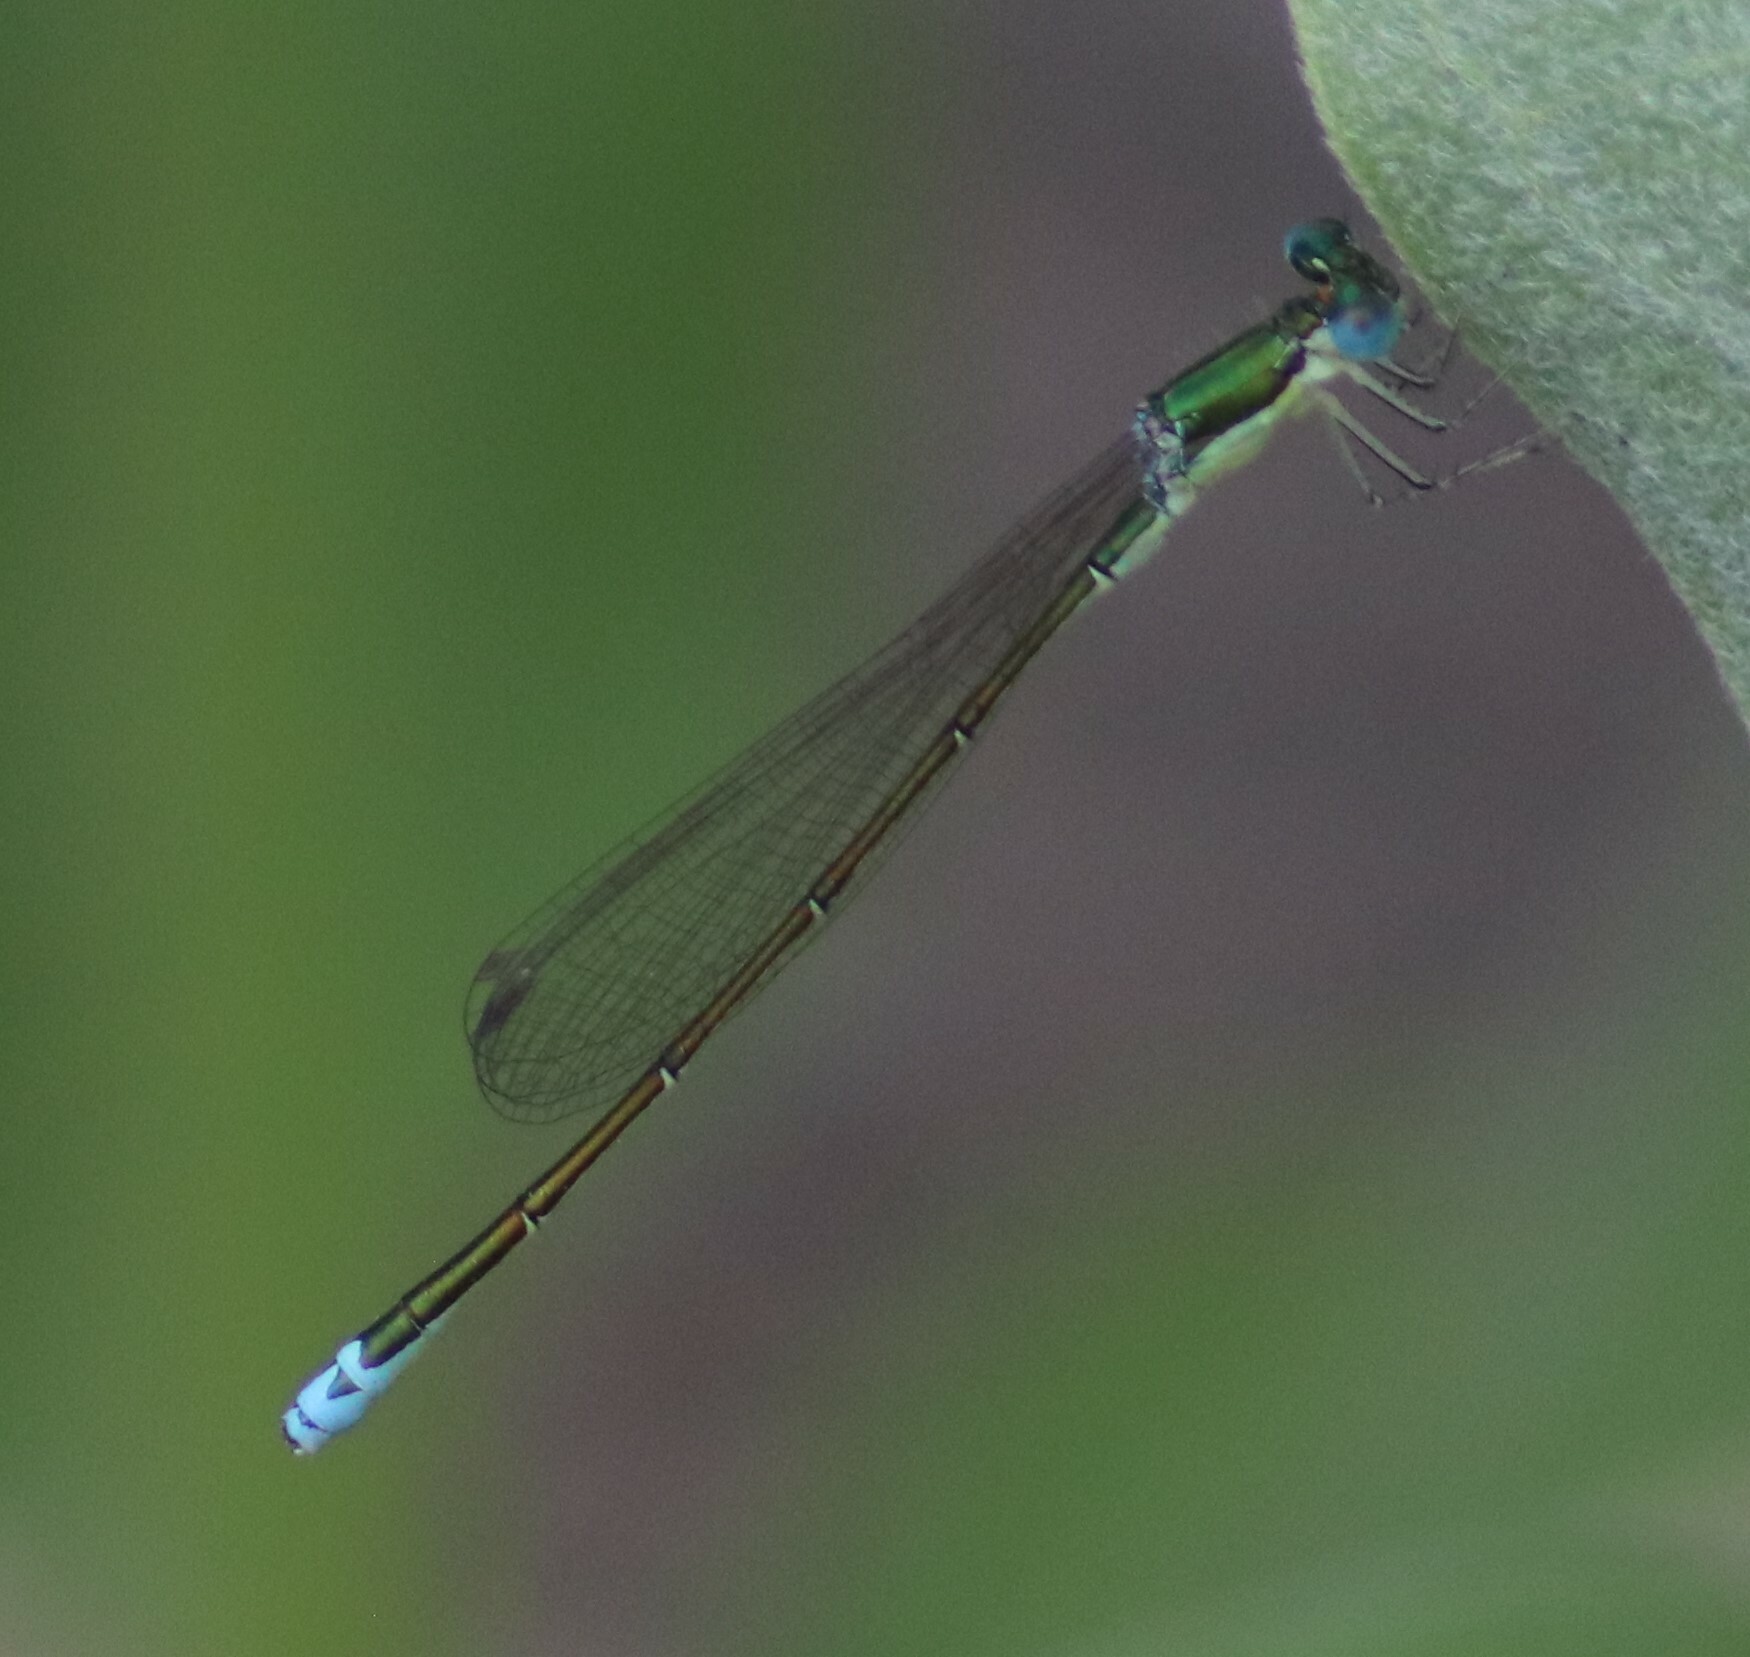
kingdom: Animalia
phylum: Arthropoda
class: Insecta
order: Odonata
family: Coenagrionidae
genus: Nehalennia
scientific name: Nehalennia irene
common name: Sedge sprite
